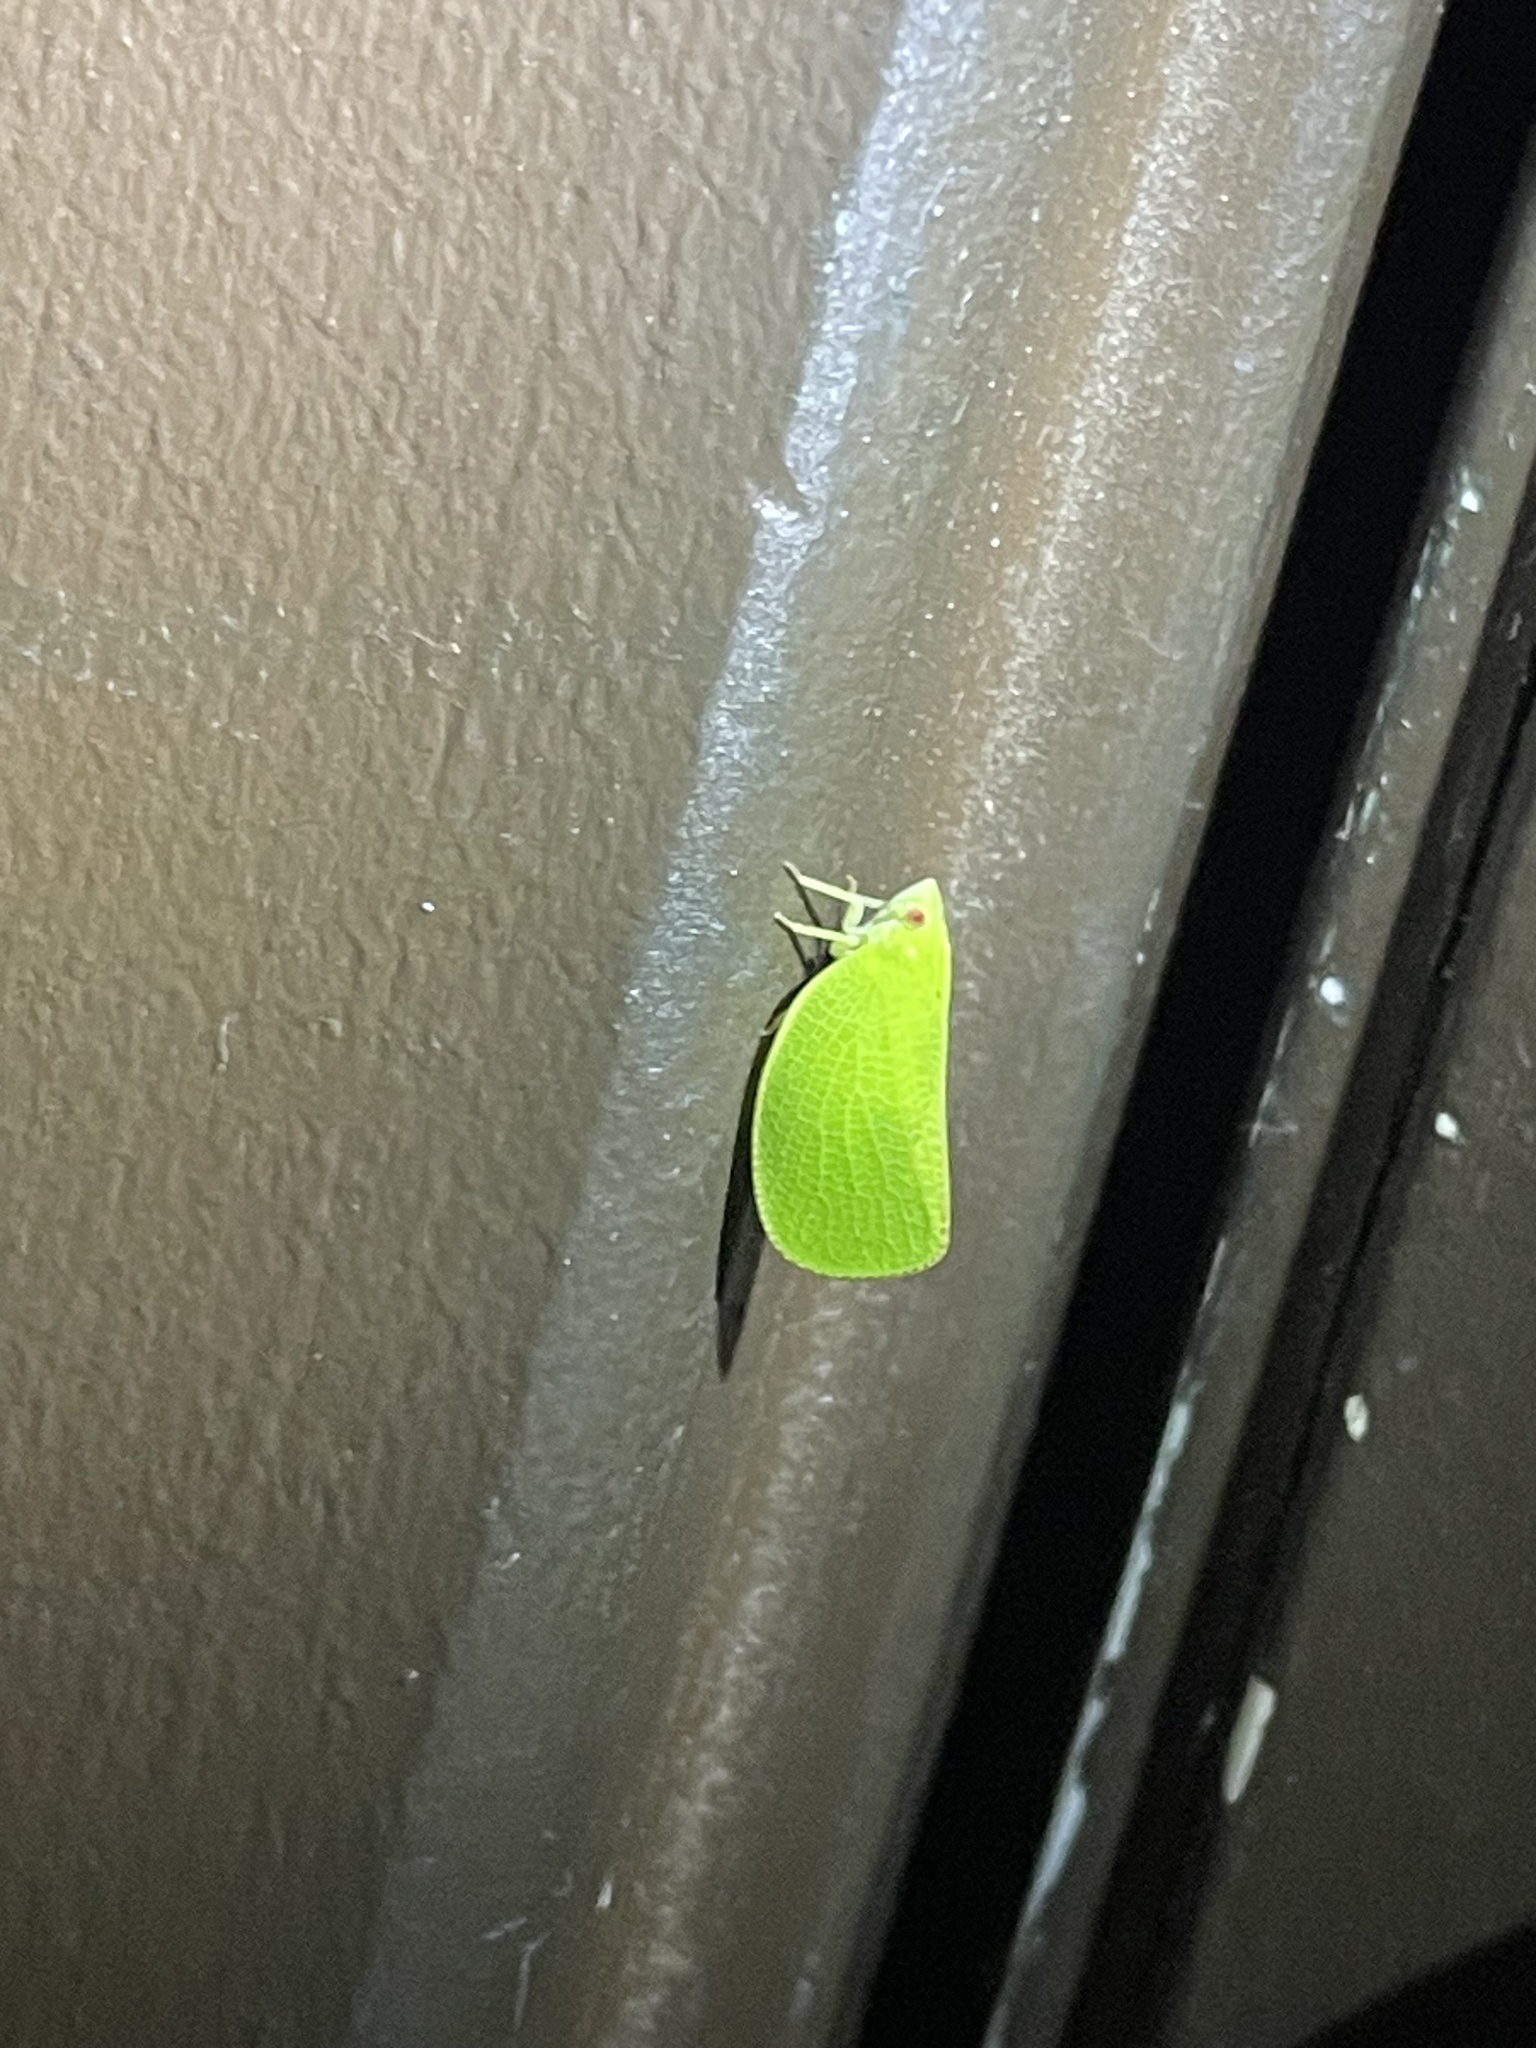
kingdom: Animalia
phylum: Arthropoda
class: Insecta
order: Hemiptera
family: Acanaloniidae
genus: Acanalonia
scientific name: Acanalonia conica
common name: Green cone-headed planthopper
